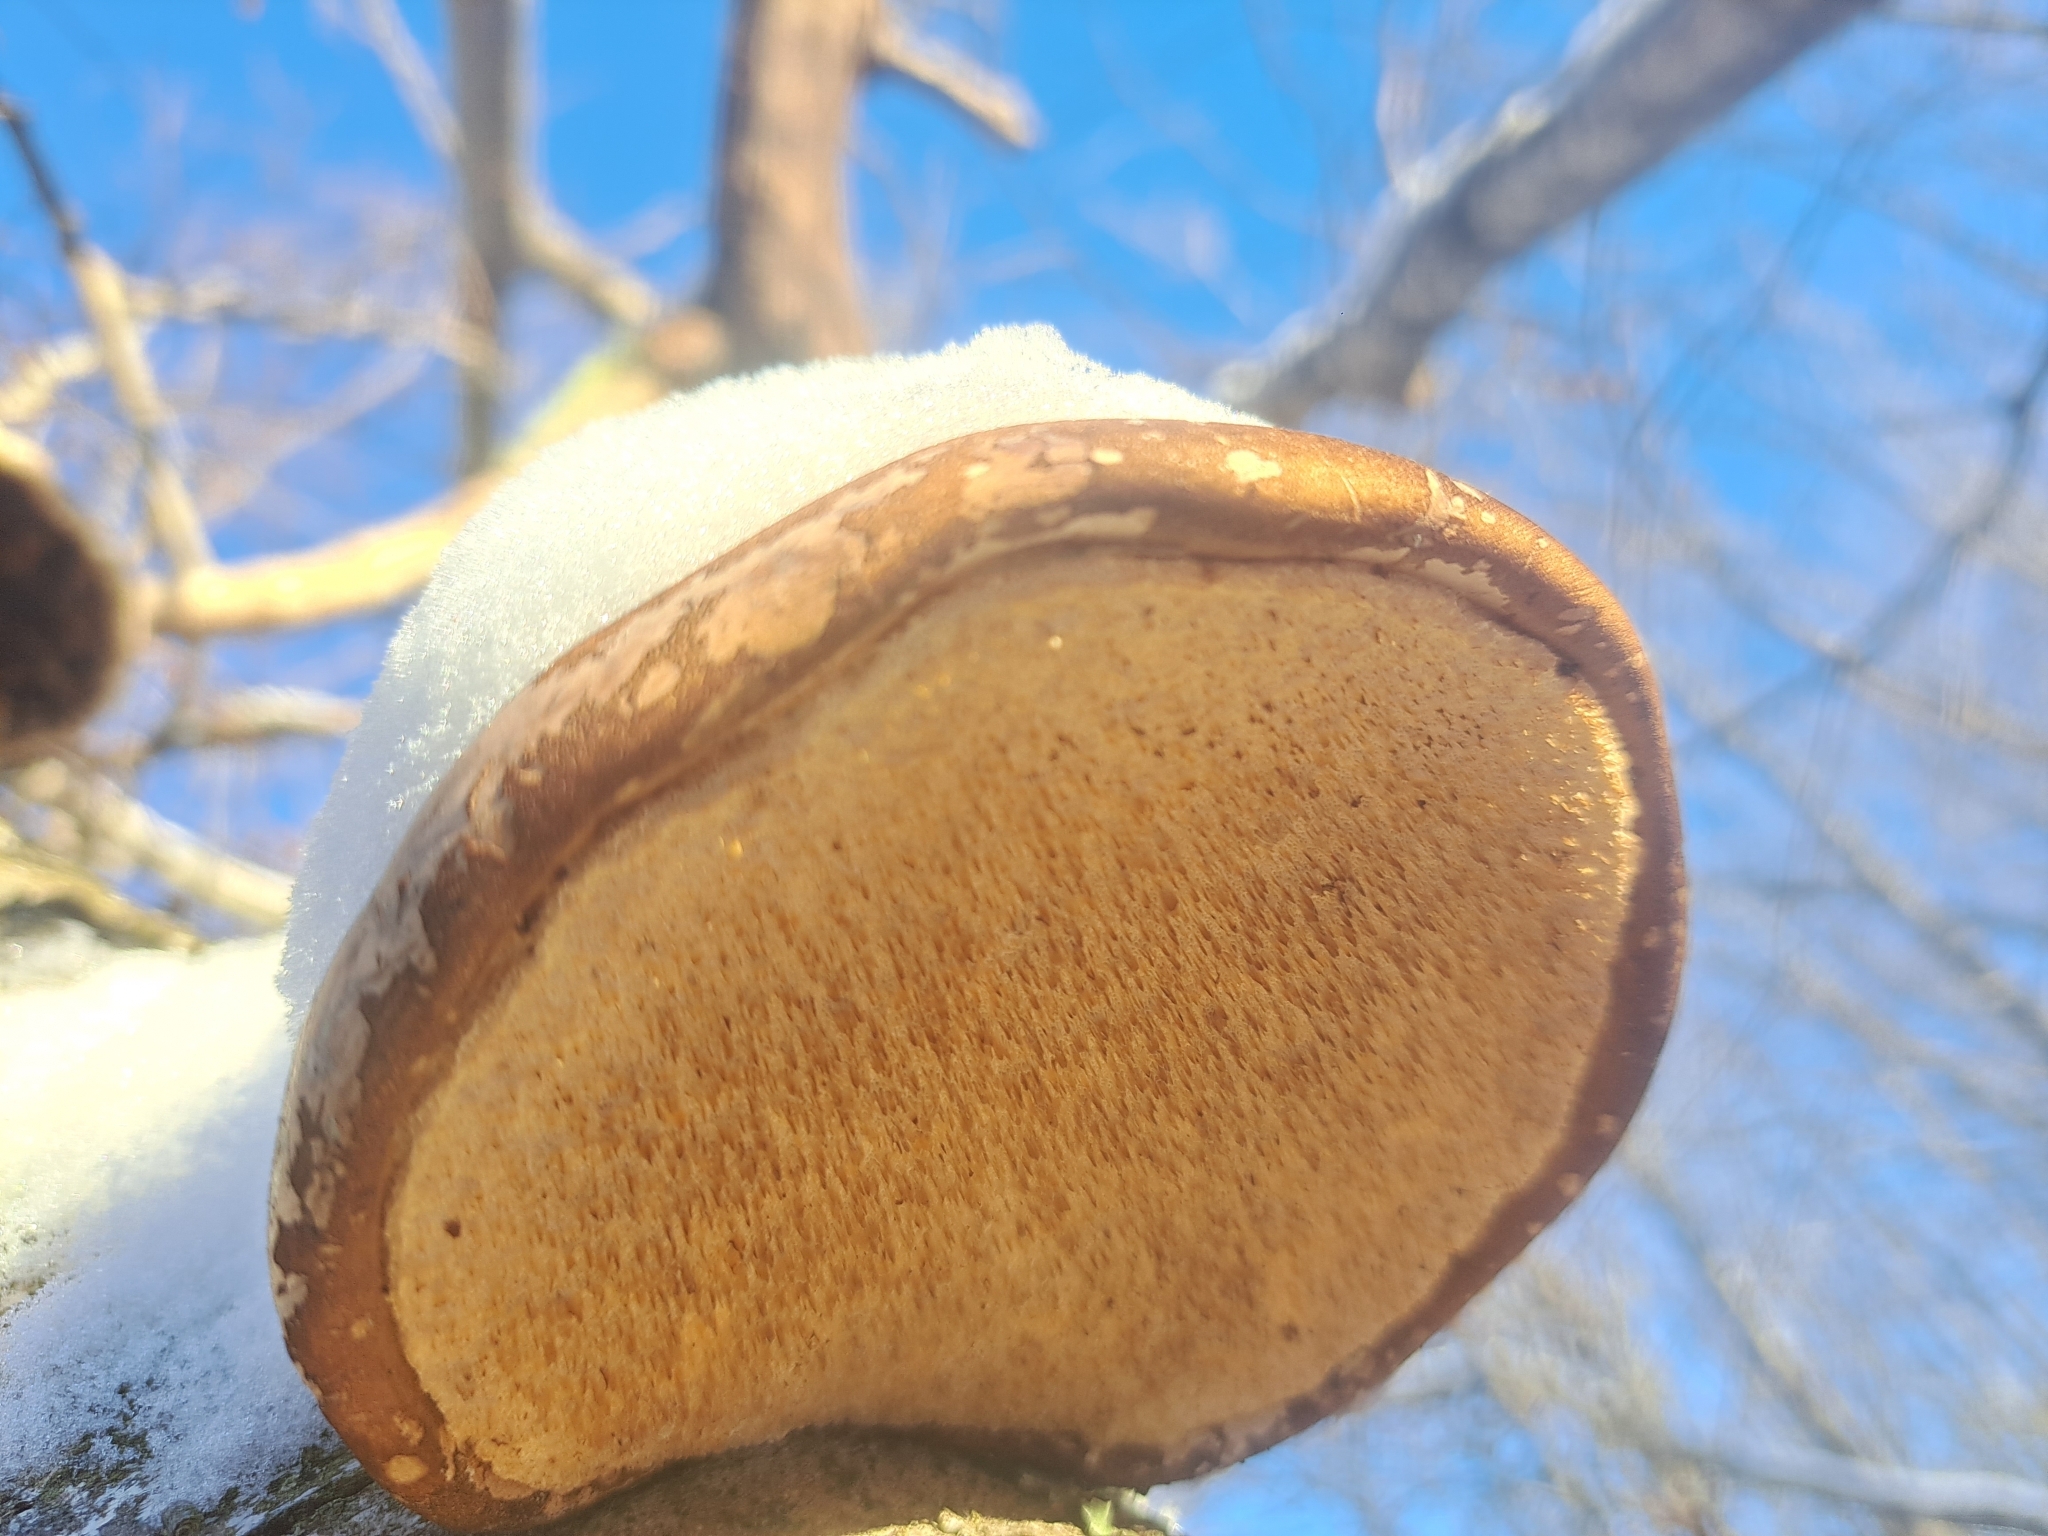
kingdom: Fungi
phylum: Basidiomycota
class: Agaricomycetes
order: Polyporales
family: Fomitopsidaceae
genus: Fomitopsis
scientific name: Fomitopsis betulina
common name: Birch polypore
